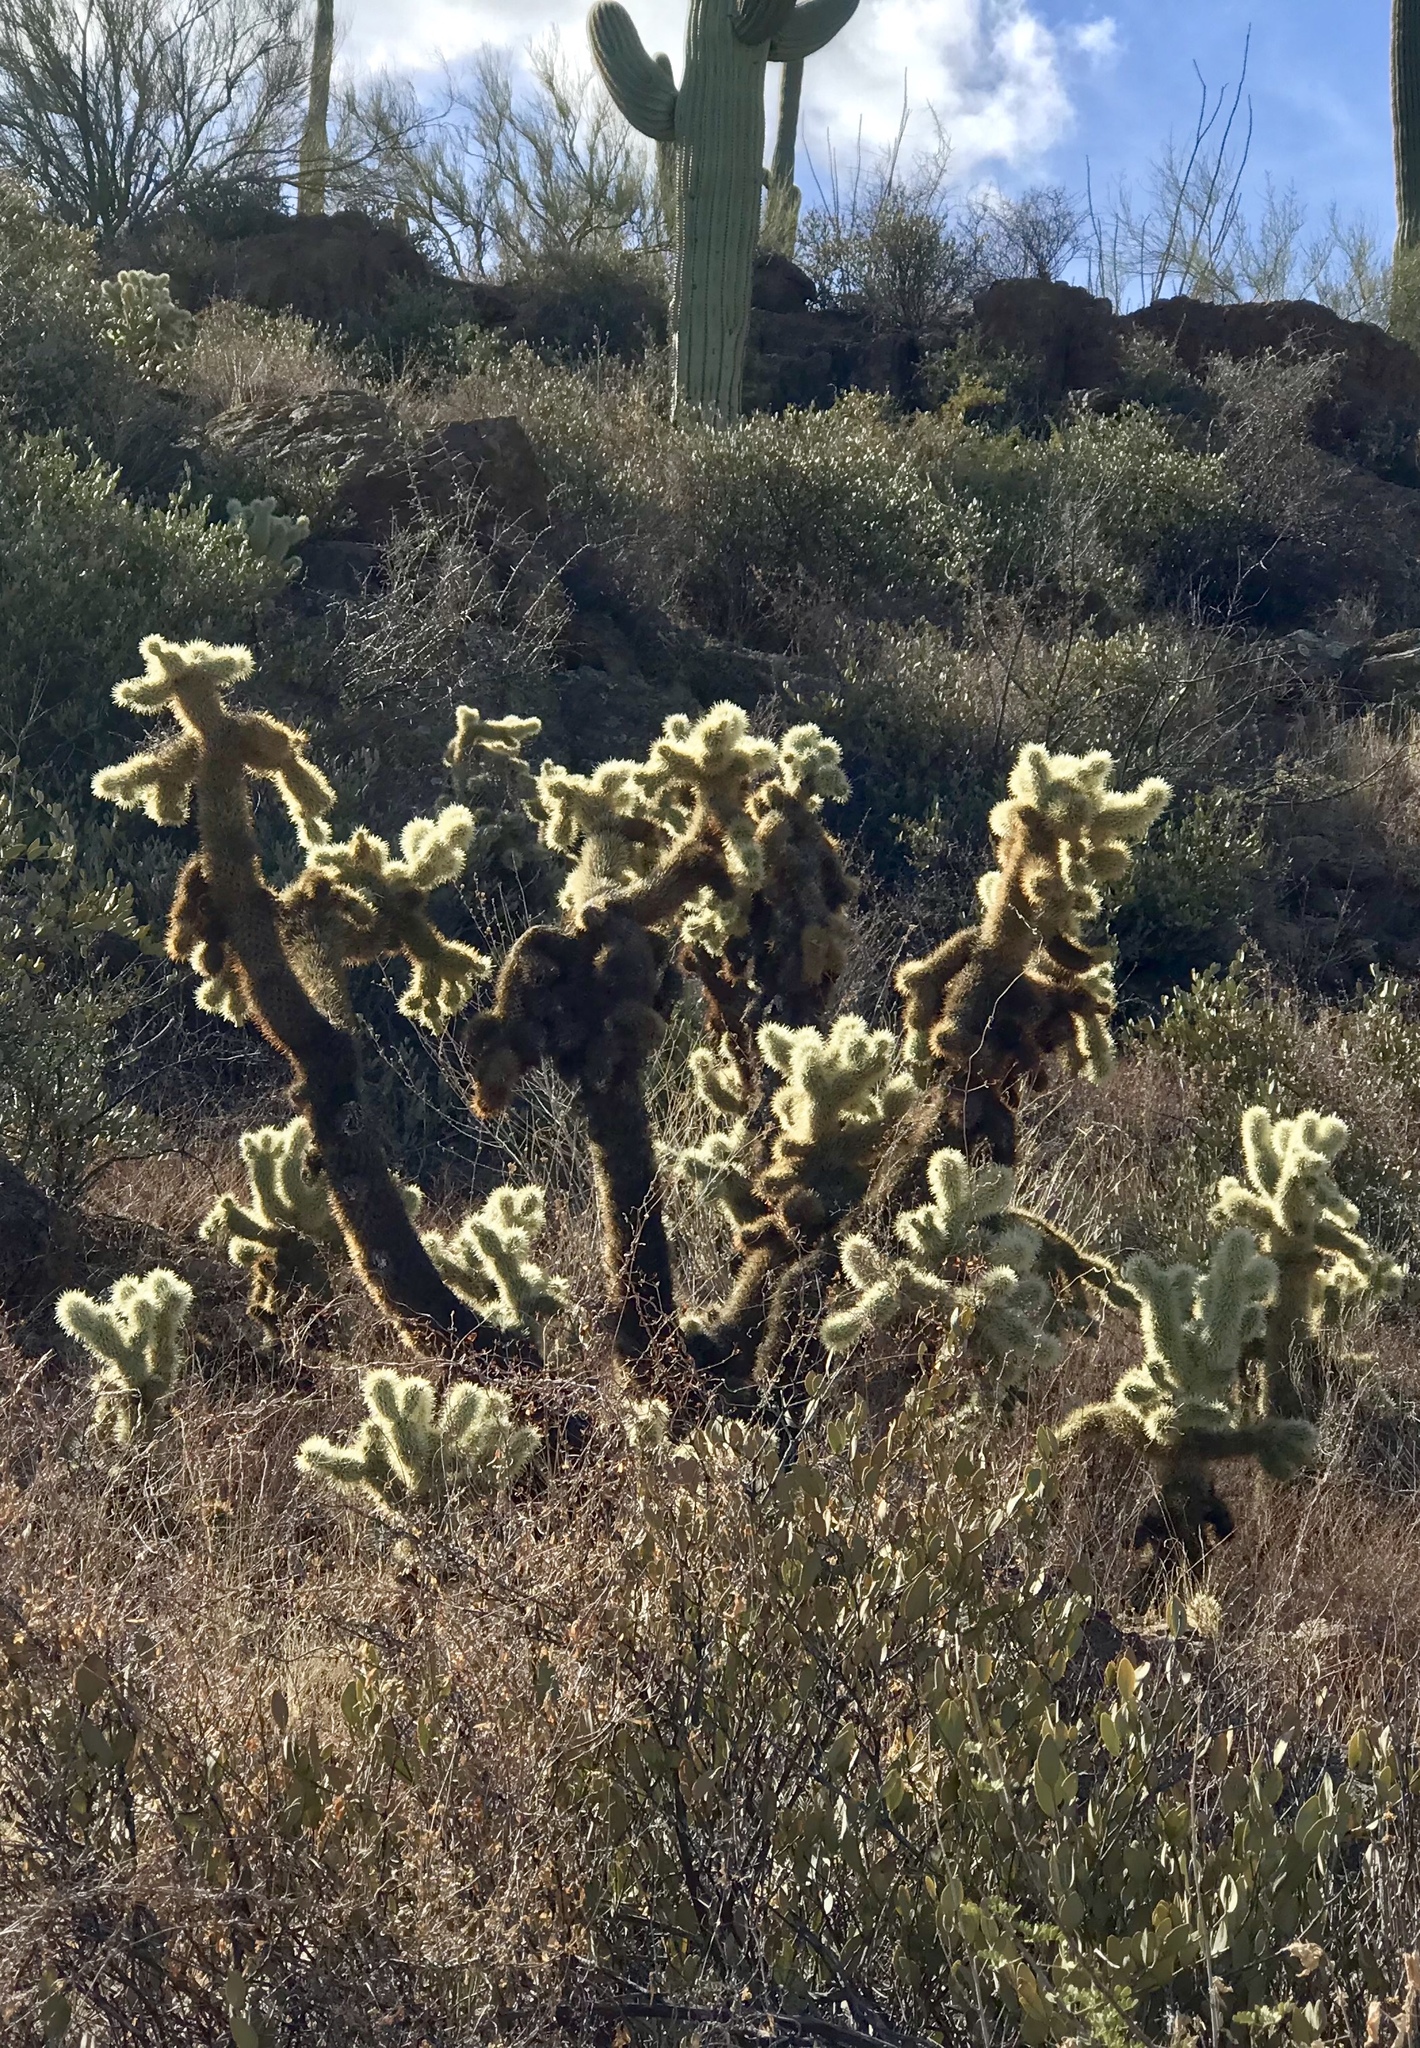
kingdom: Plantae
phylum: Tracheophyta
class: Magnoliopsida
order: Caryophyllales
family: Cactaceae
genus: Cylindropuntia
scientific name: Cylindropuntia fosbergii
